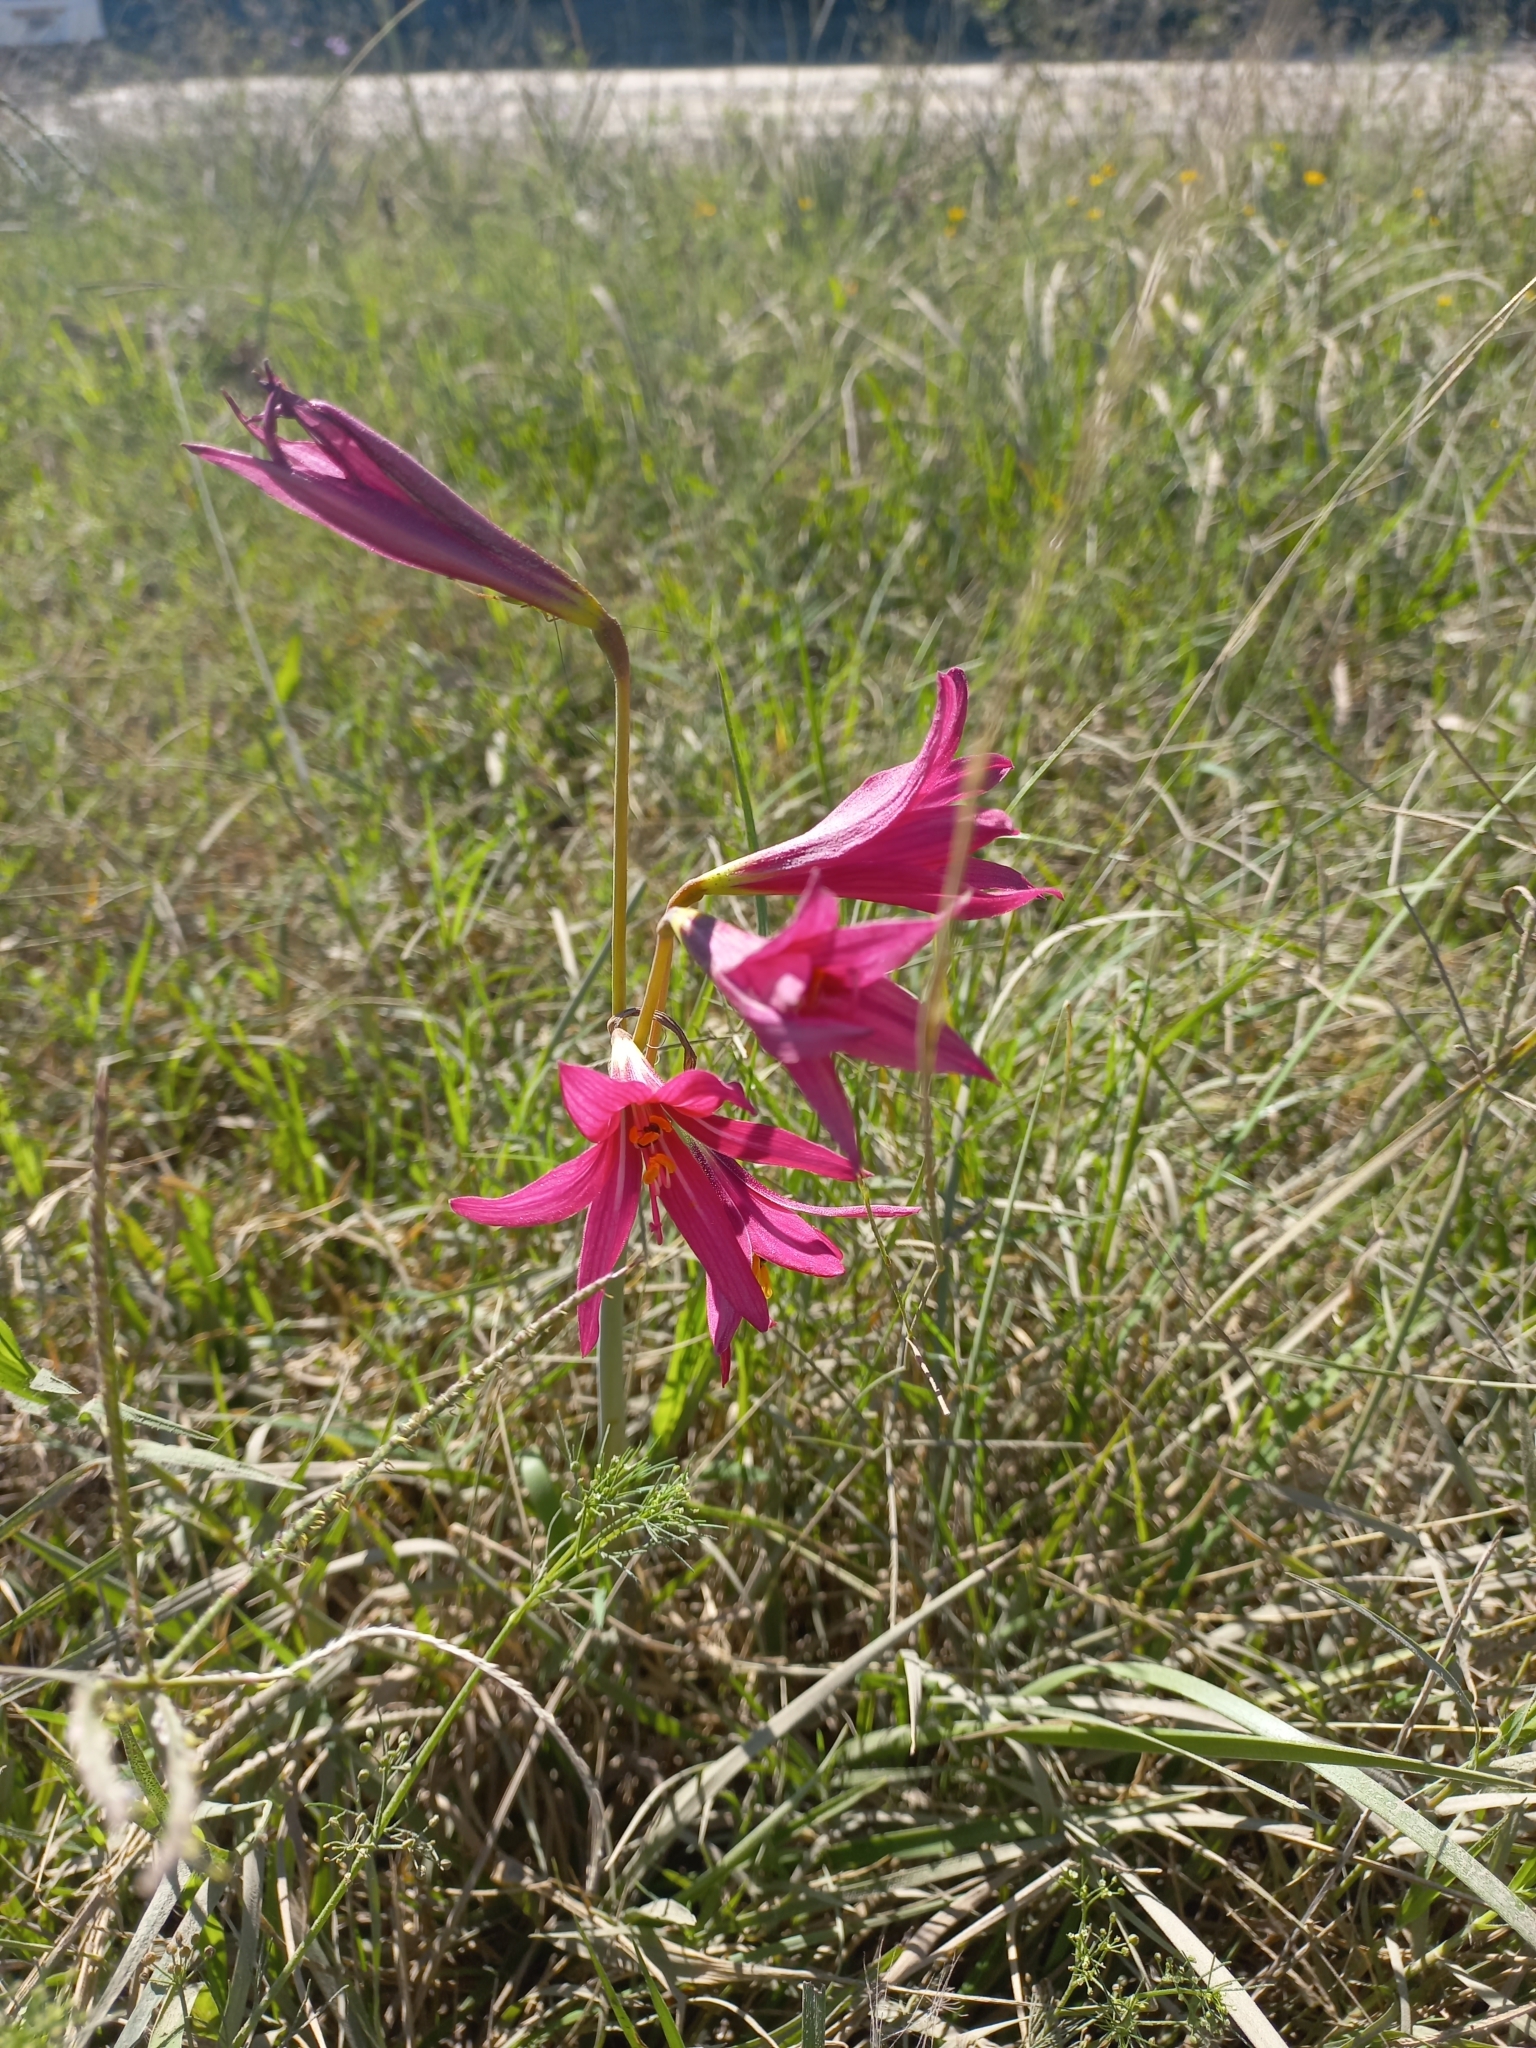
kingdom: Plantae
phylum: Tracheophyta
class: Liliopsida
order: Asparagales
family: Amaryllidaceae
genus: Zephyranthes
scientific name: Zephyranthes bifida
